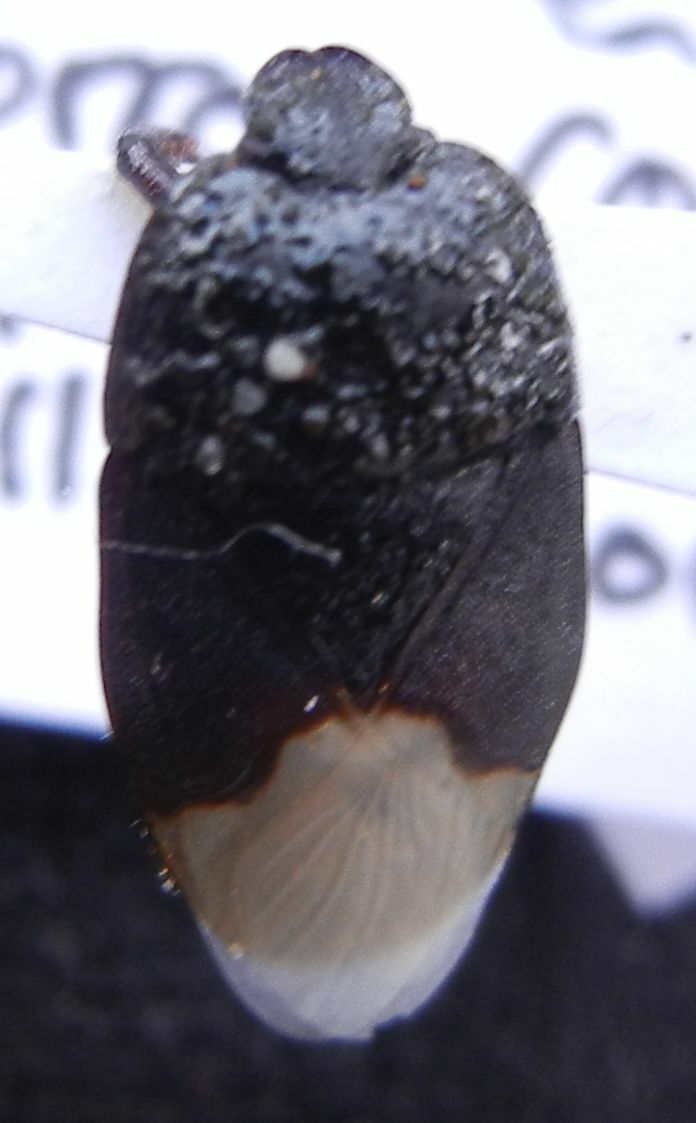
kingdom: Animalia
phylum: Arthropoda
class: Insecta
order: Hemiptera
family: Cydnidae
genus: Cydnus
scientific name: Cydnus aterrimus
